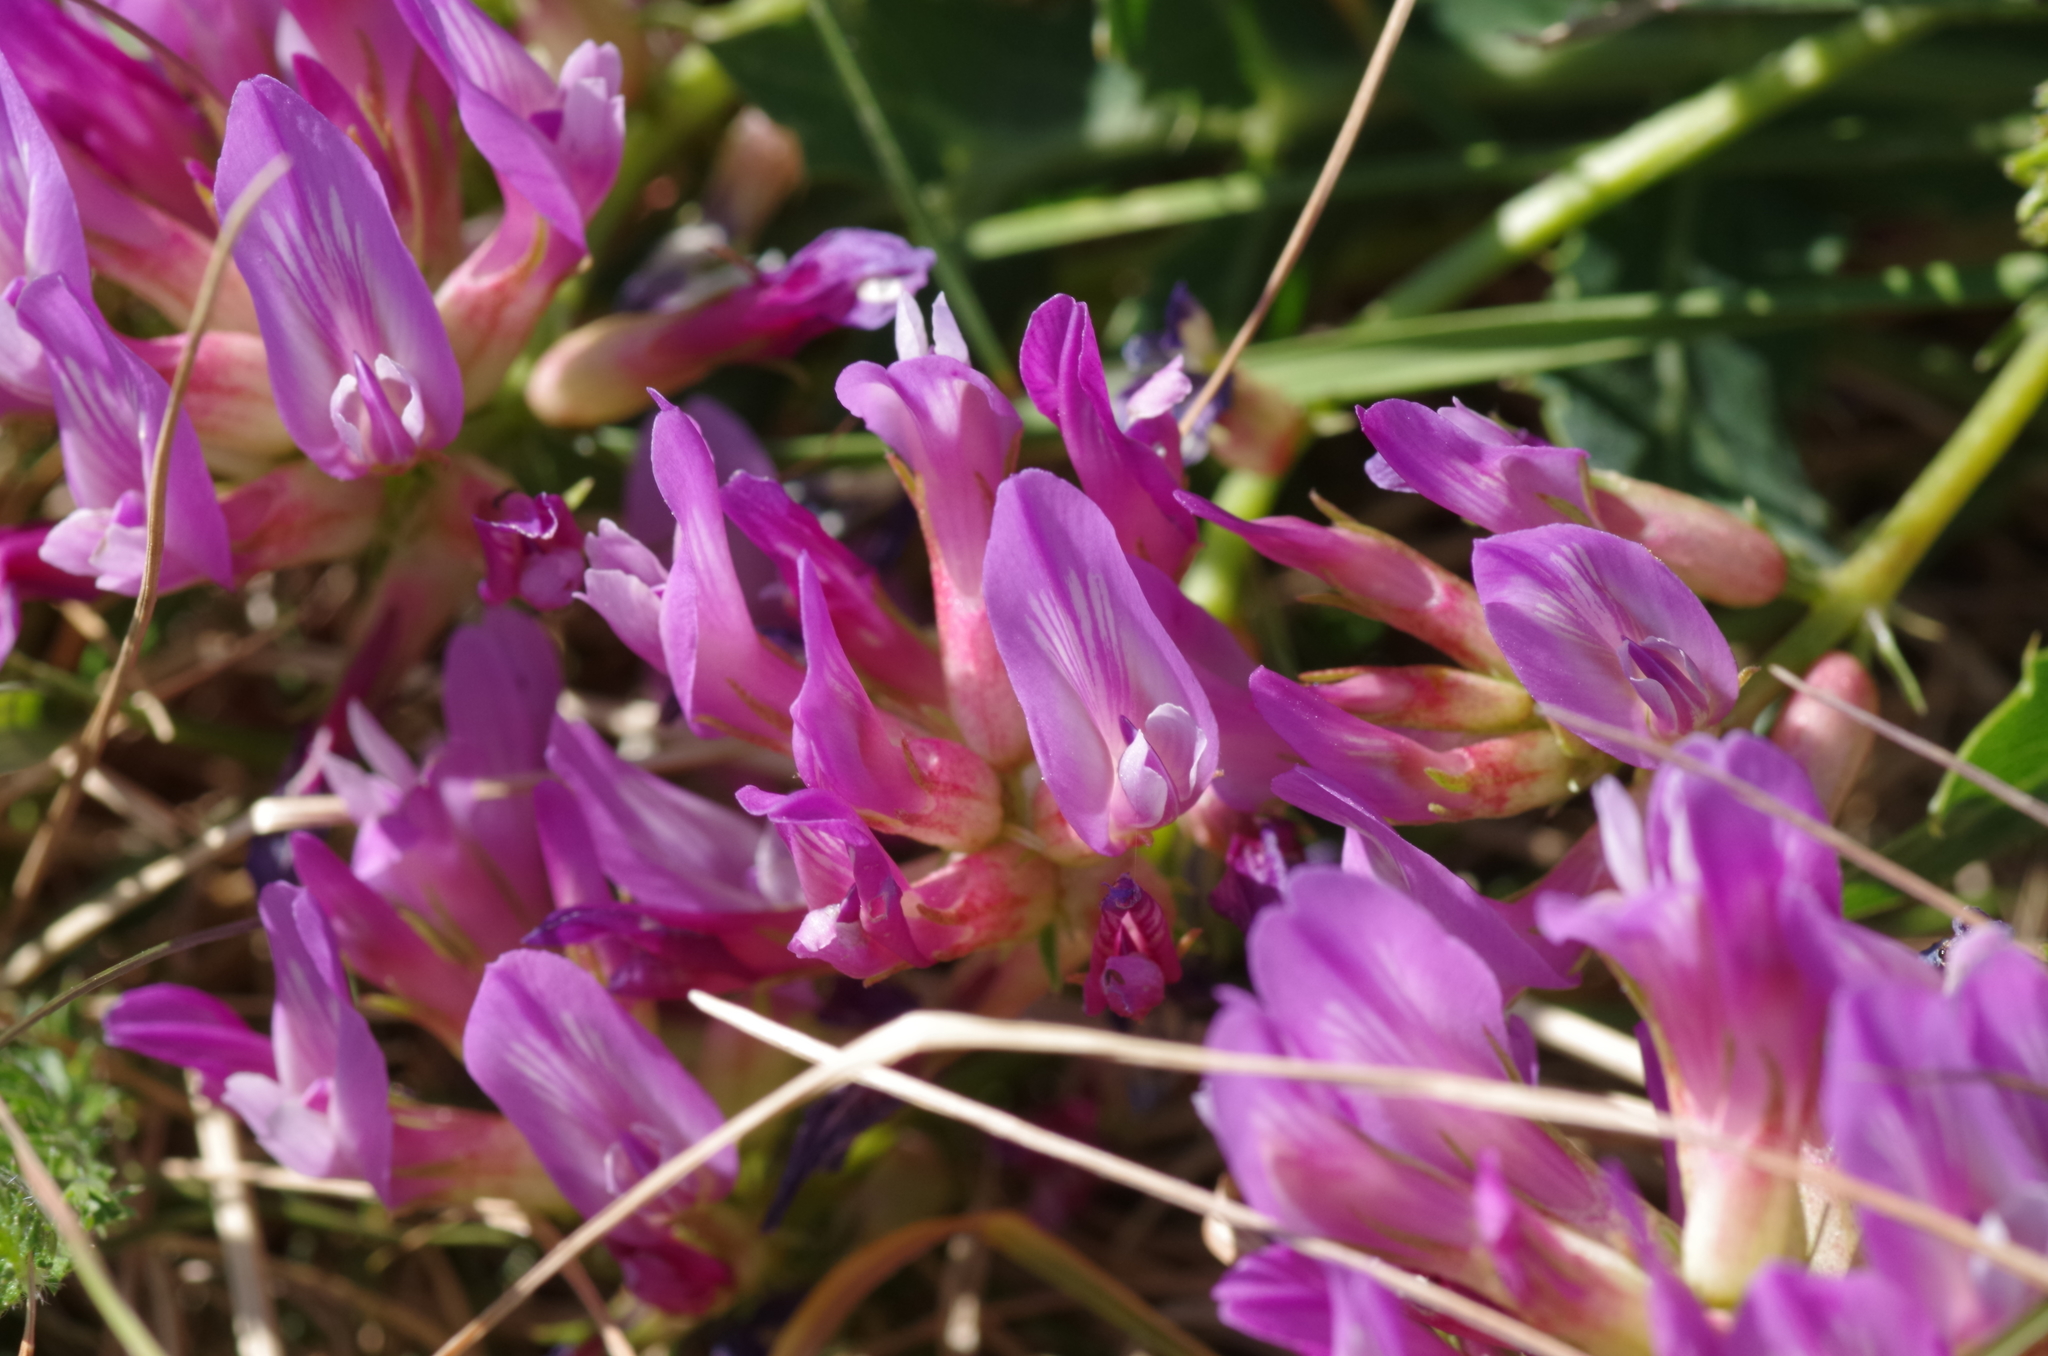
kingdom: Plantae
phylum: Tracheophyta
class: Magnoliopsida
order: Fabales
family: Fabaceae
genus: Astragalus
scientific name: Astragalus monspessulanus
